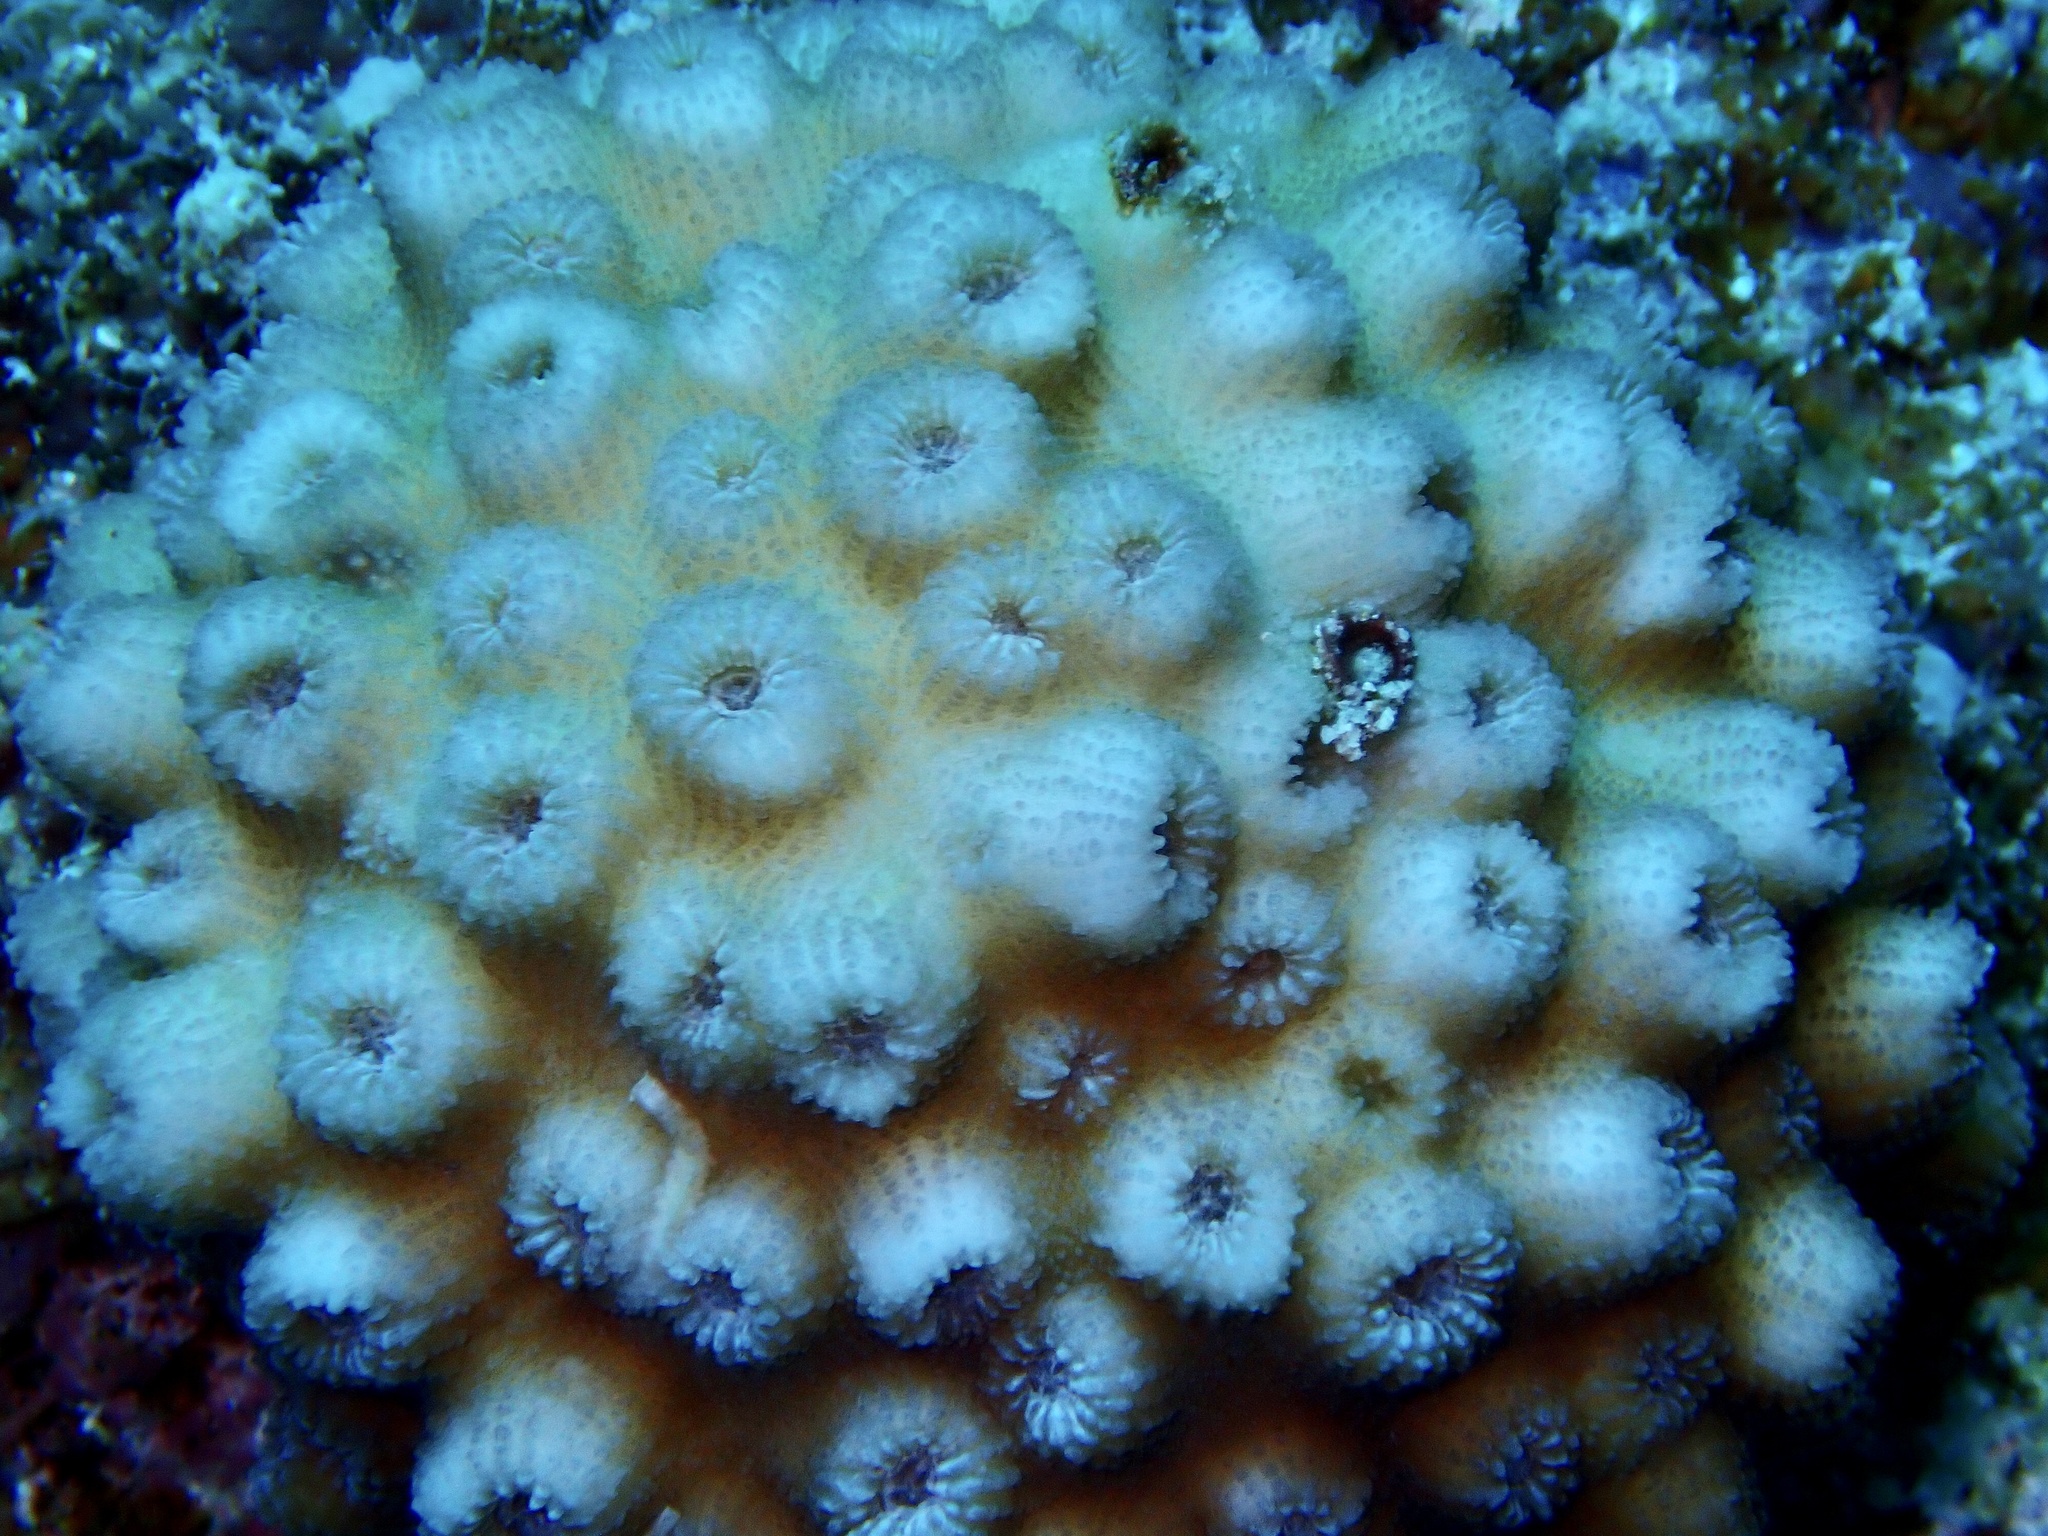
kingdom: Animalia
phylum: Cnidaria
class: Anthozoa
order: Scleractinia
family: Merulinidae
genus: Echinopora
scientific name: Echinopora forskaliana
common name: Hedgehog coral
